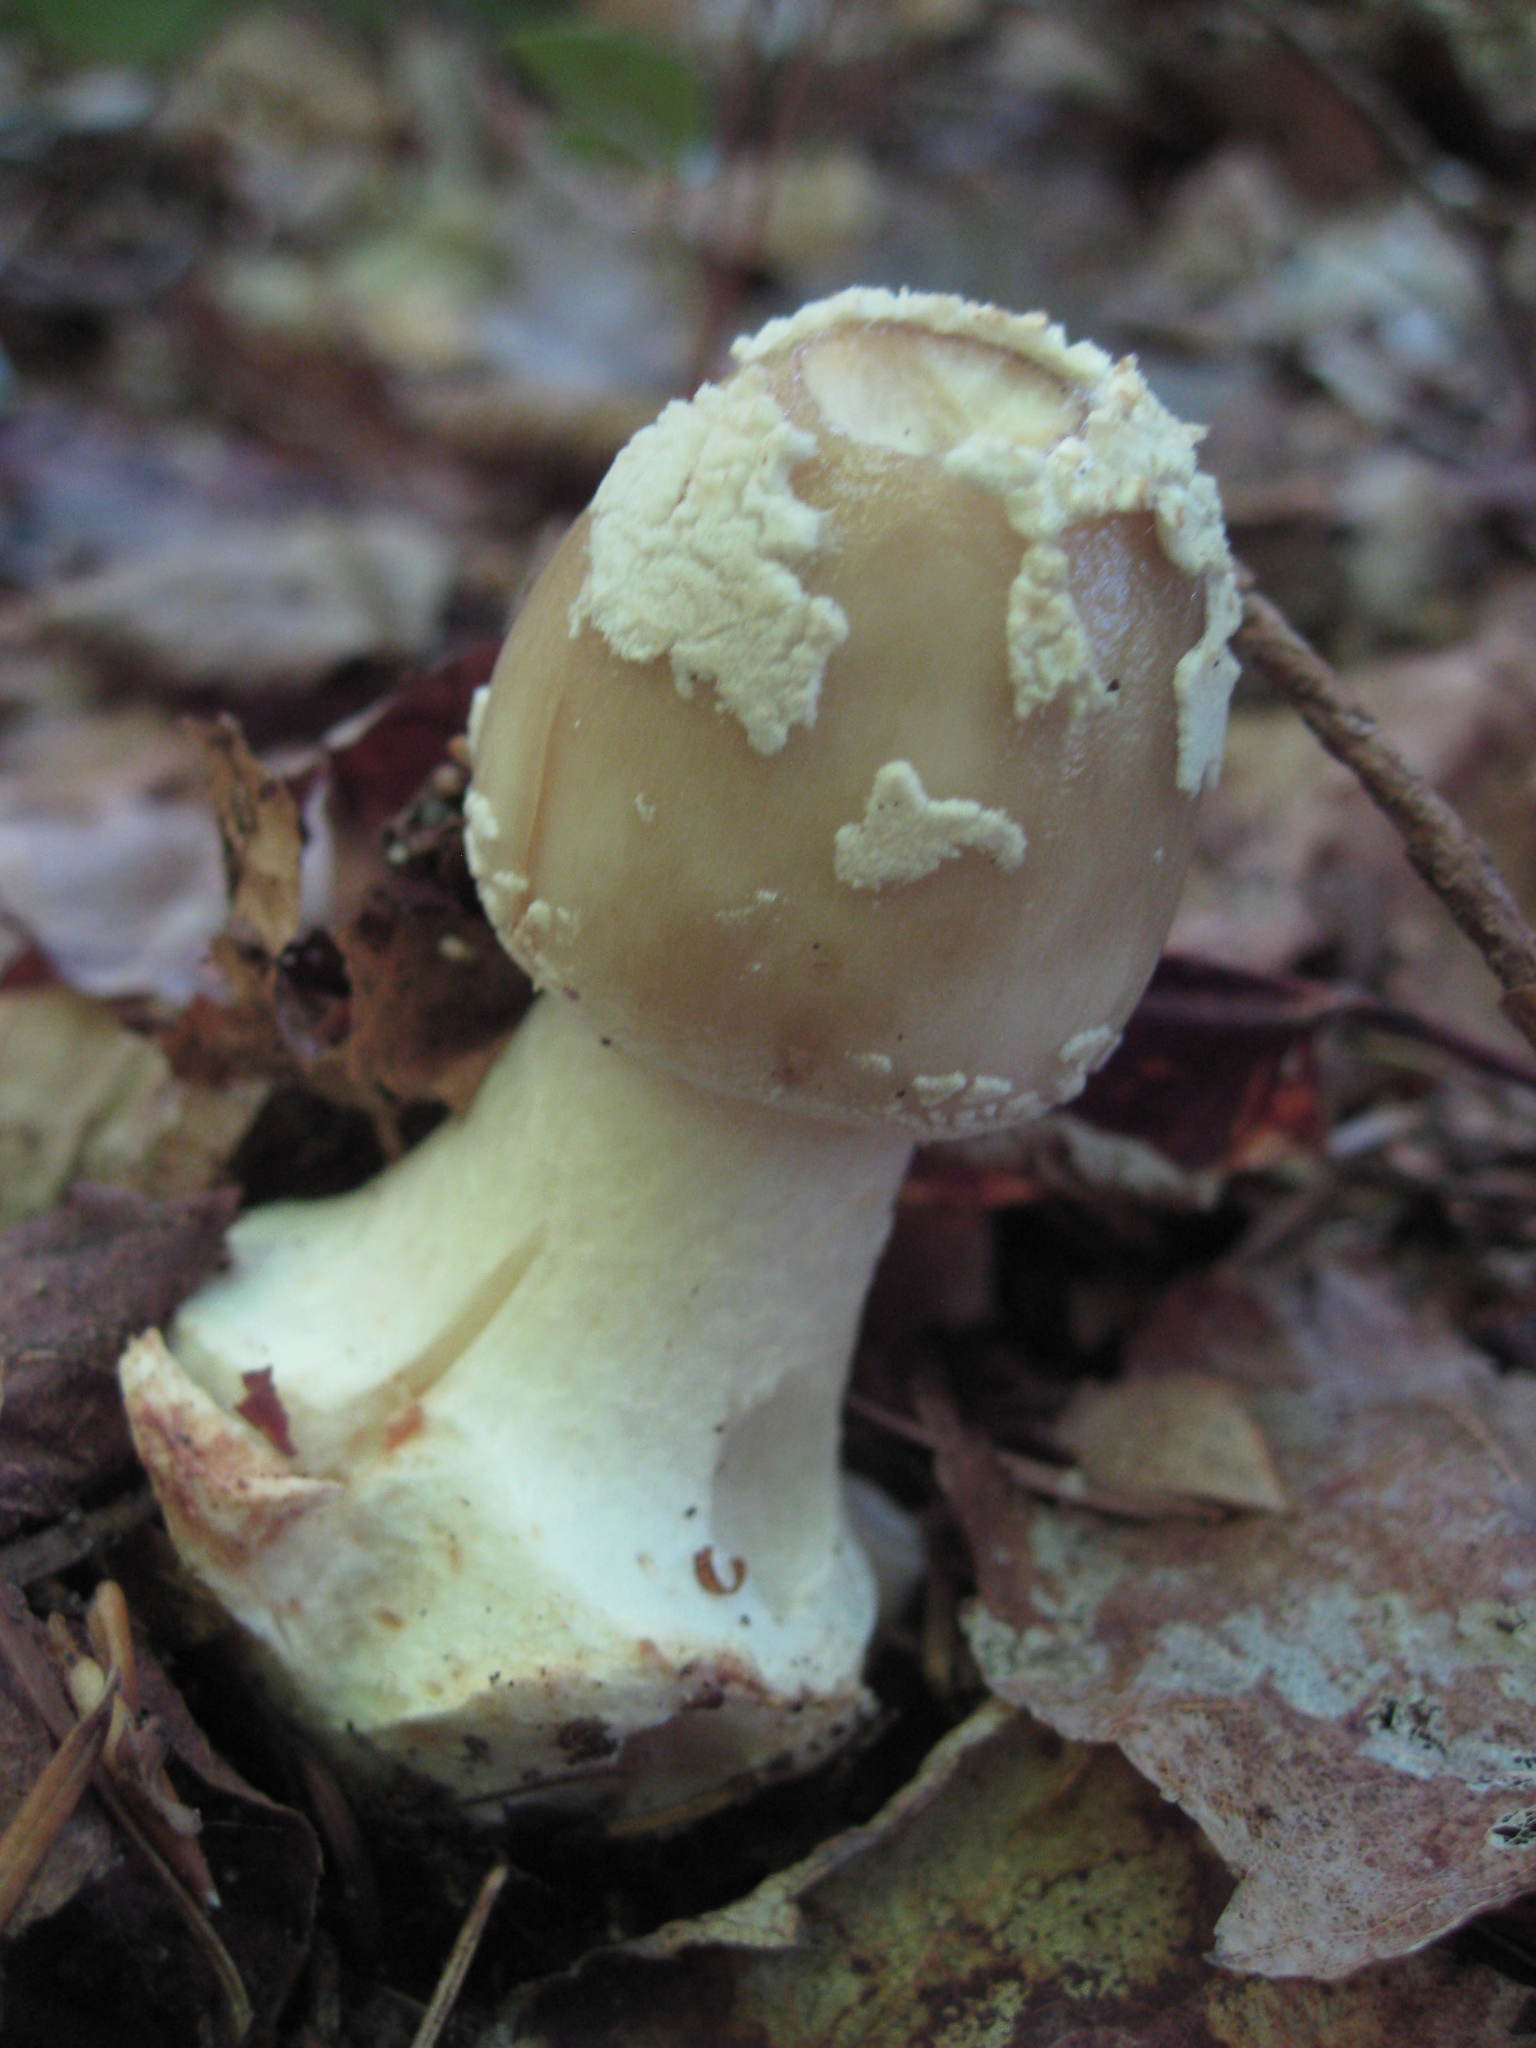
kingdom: Fungi
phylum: Basidiomycota
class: Agaricomycetes
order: Agaricales
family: Amanitaceae
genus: Amanita
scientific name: Amanita brunnescens
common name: Brown american star-footed amanita
